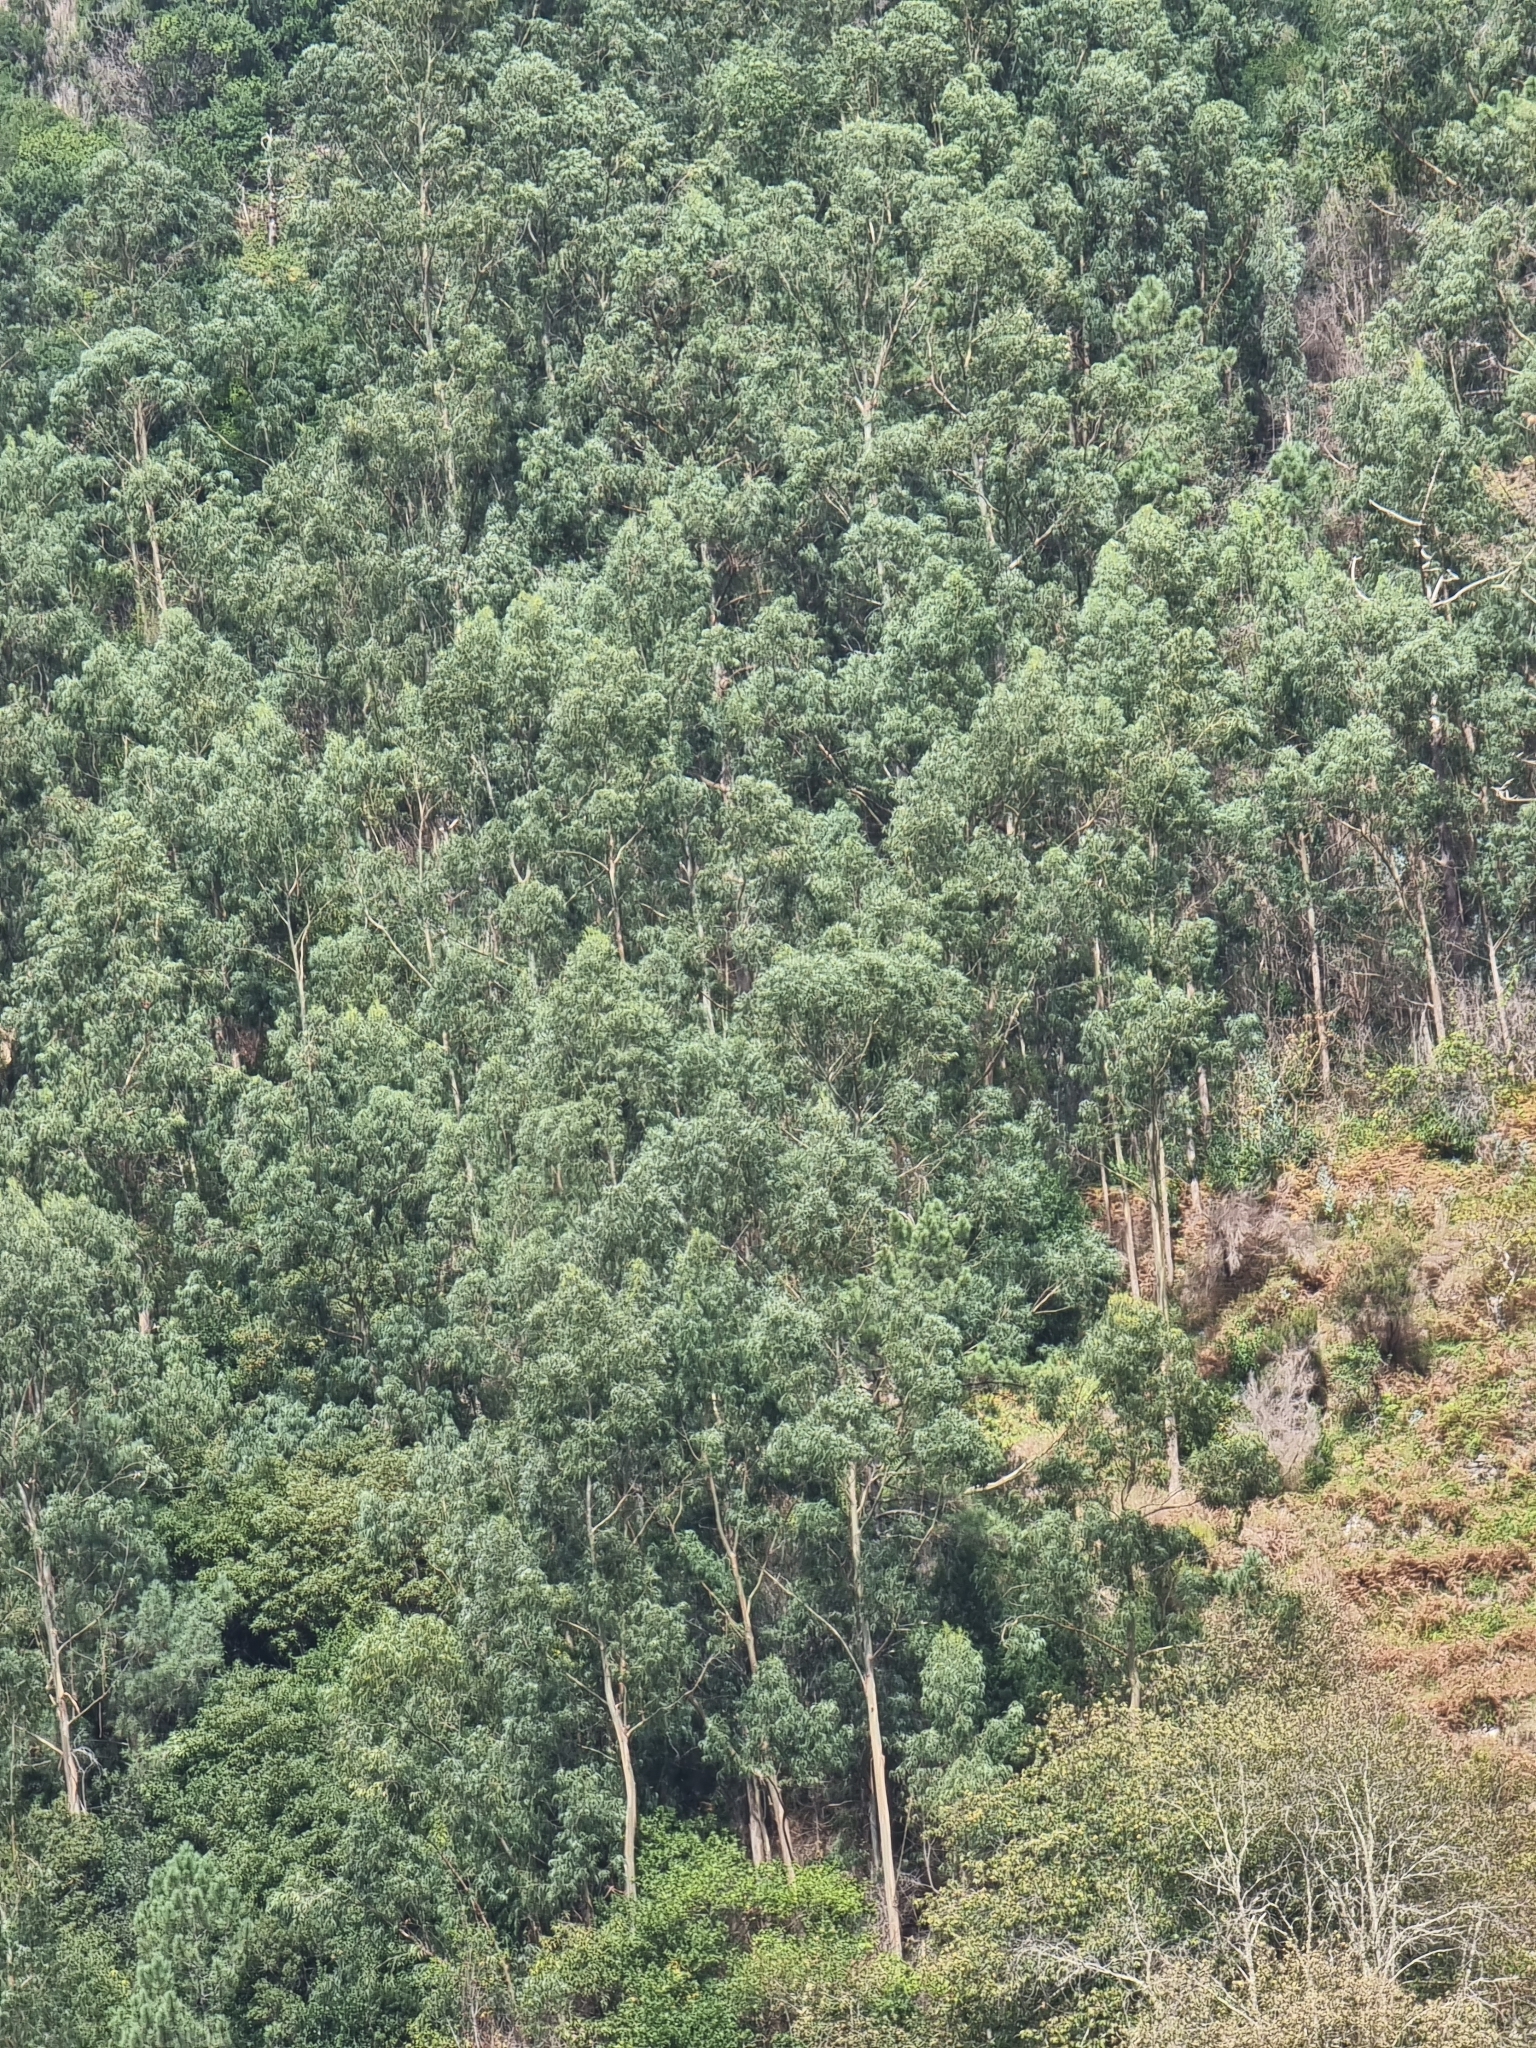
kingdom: Plantae
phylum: Tracheophyta
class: Magnoliopsida
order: Myrtales
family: Myrtaceae
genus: Eucalyptus
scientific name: Eucalyptus globulus
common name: Southern blue-gum
